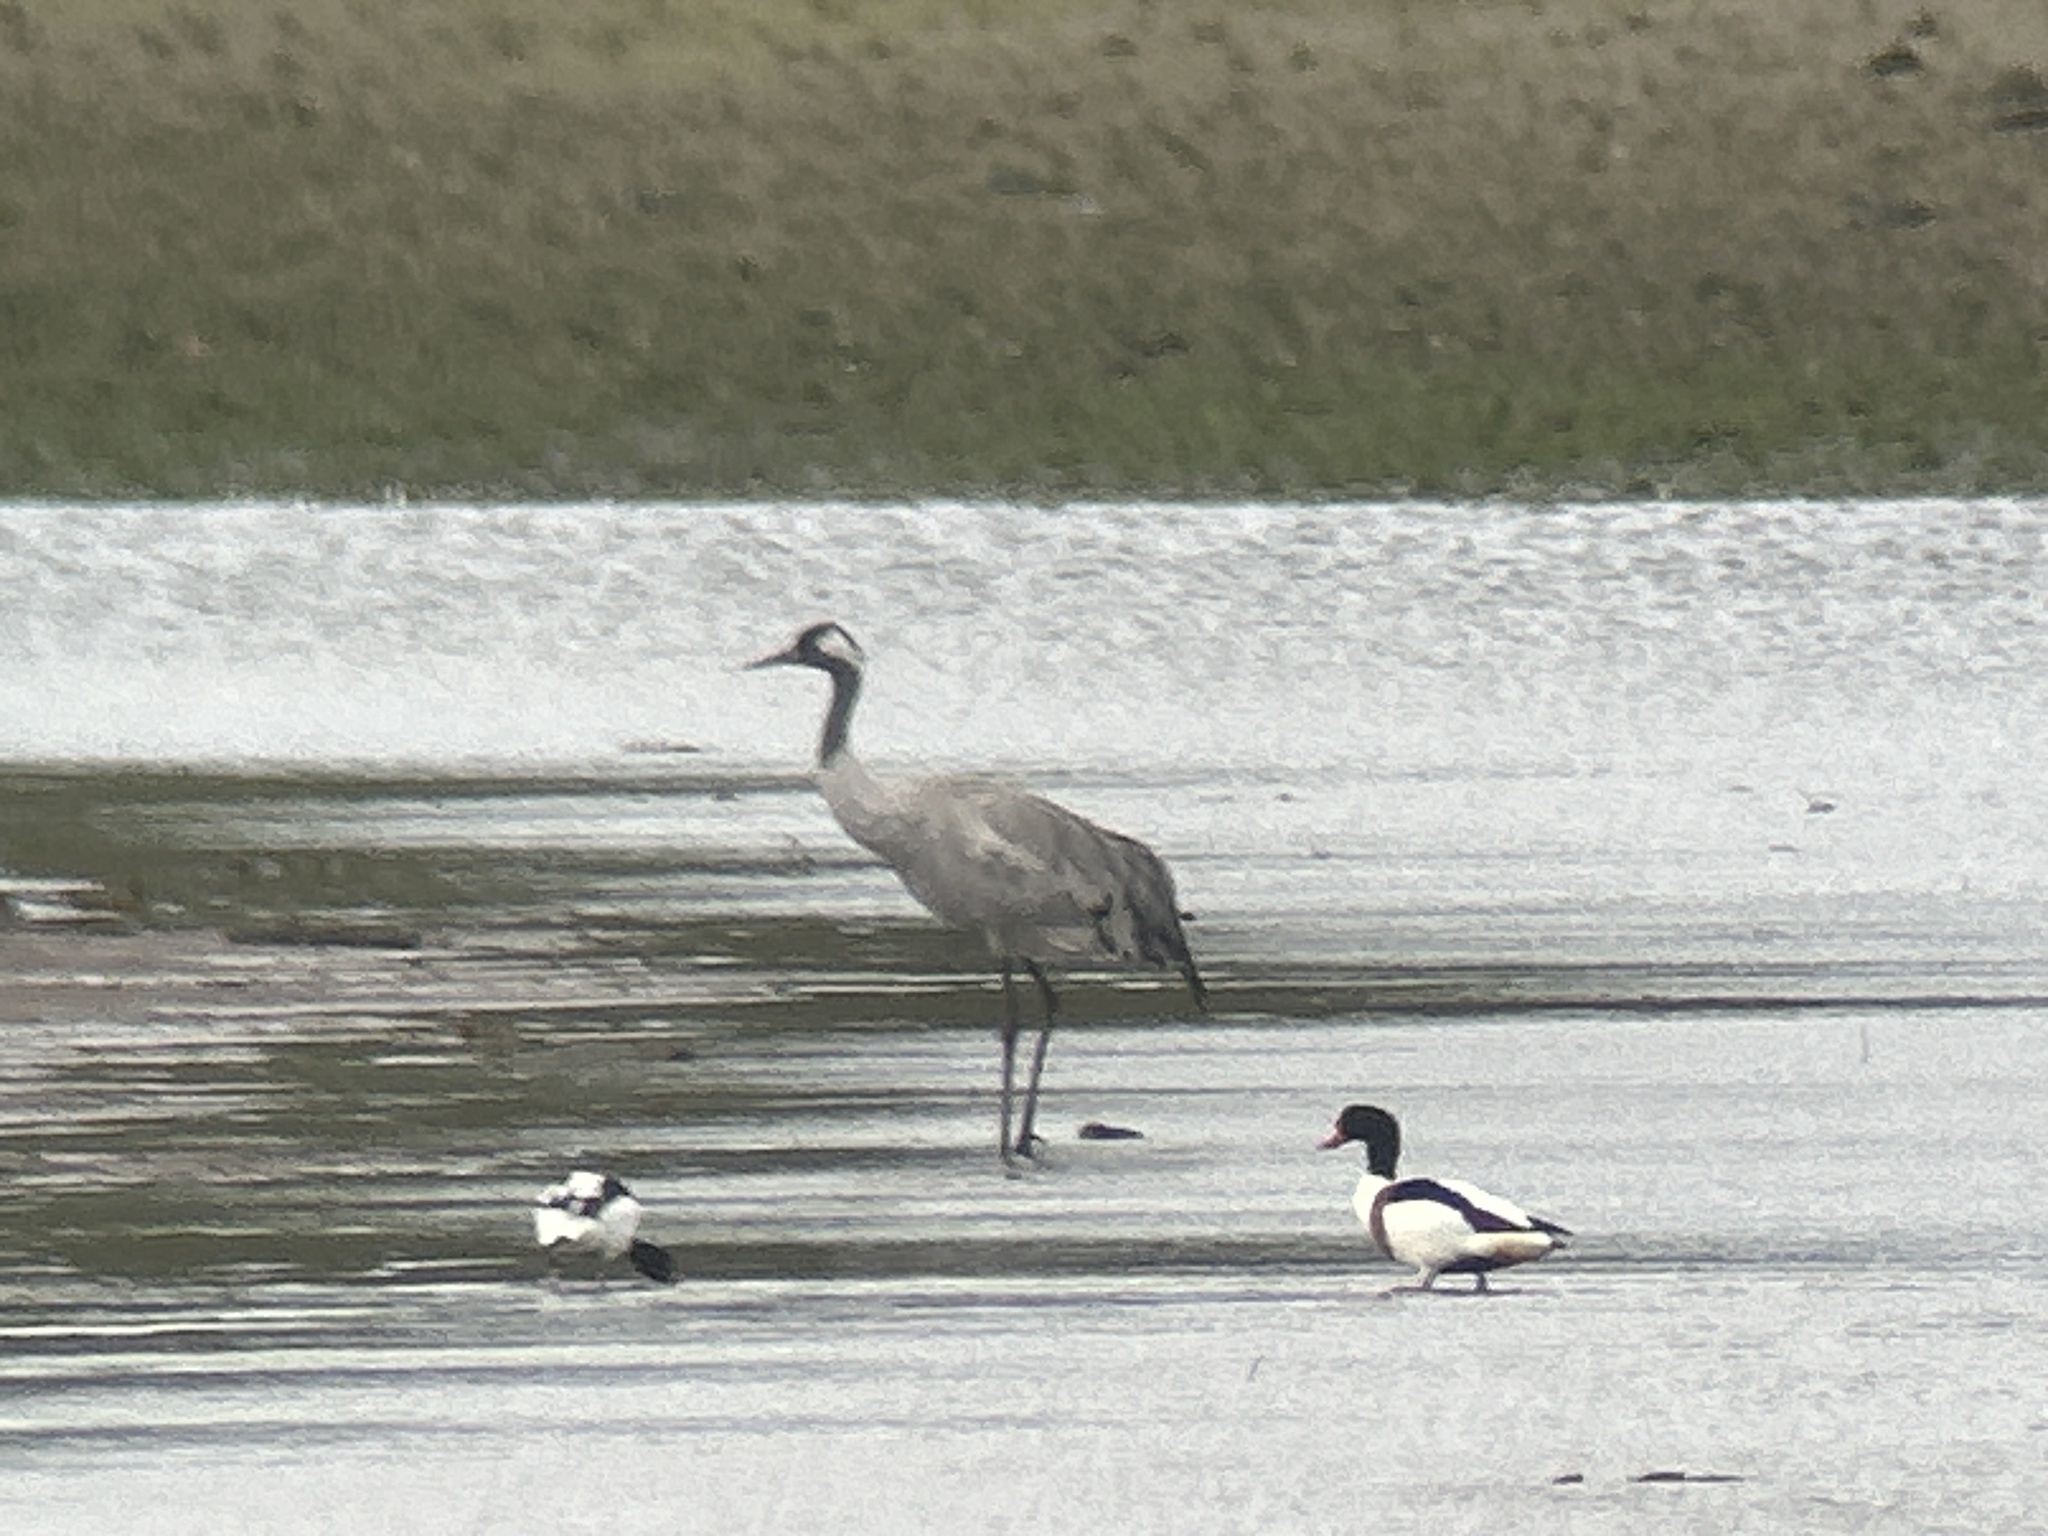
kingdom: Animalia
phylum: Chordata
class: Aves
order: Gruiformes
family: Gruidae
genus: Grus
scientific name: Grus grus
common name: Common crane
